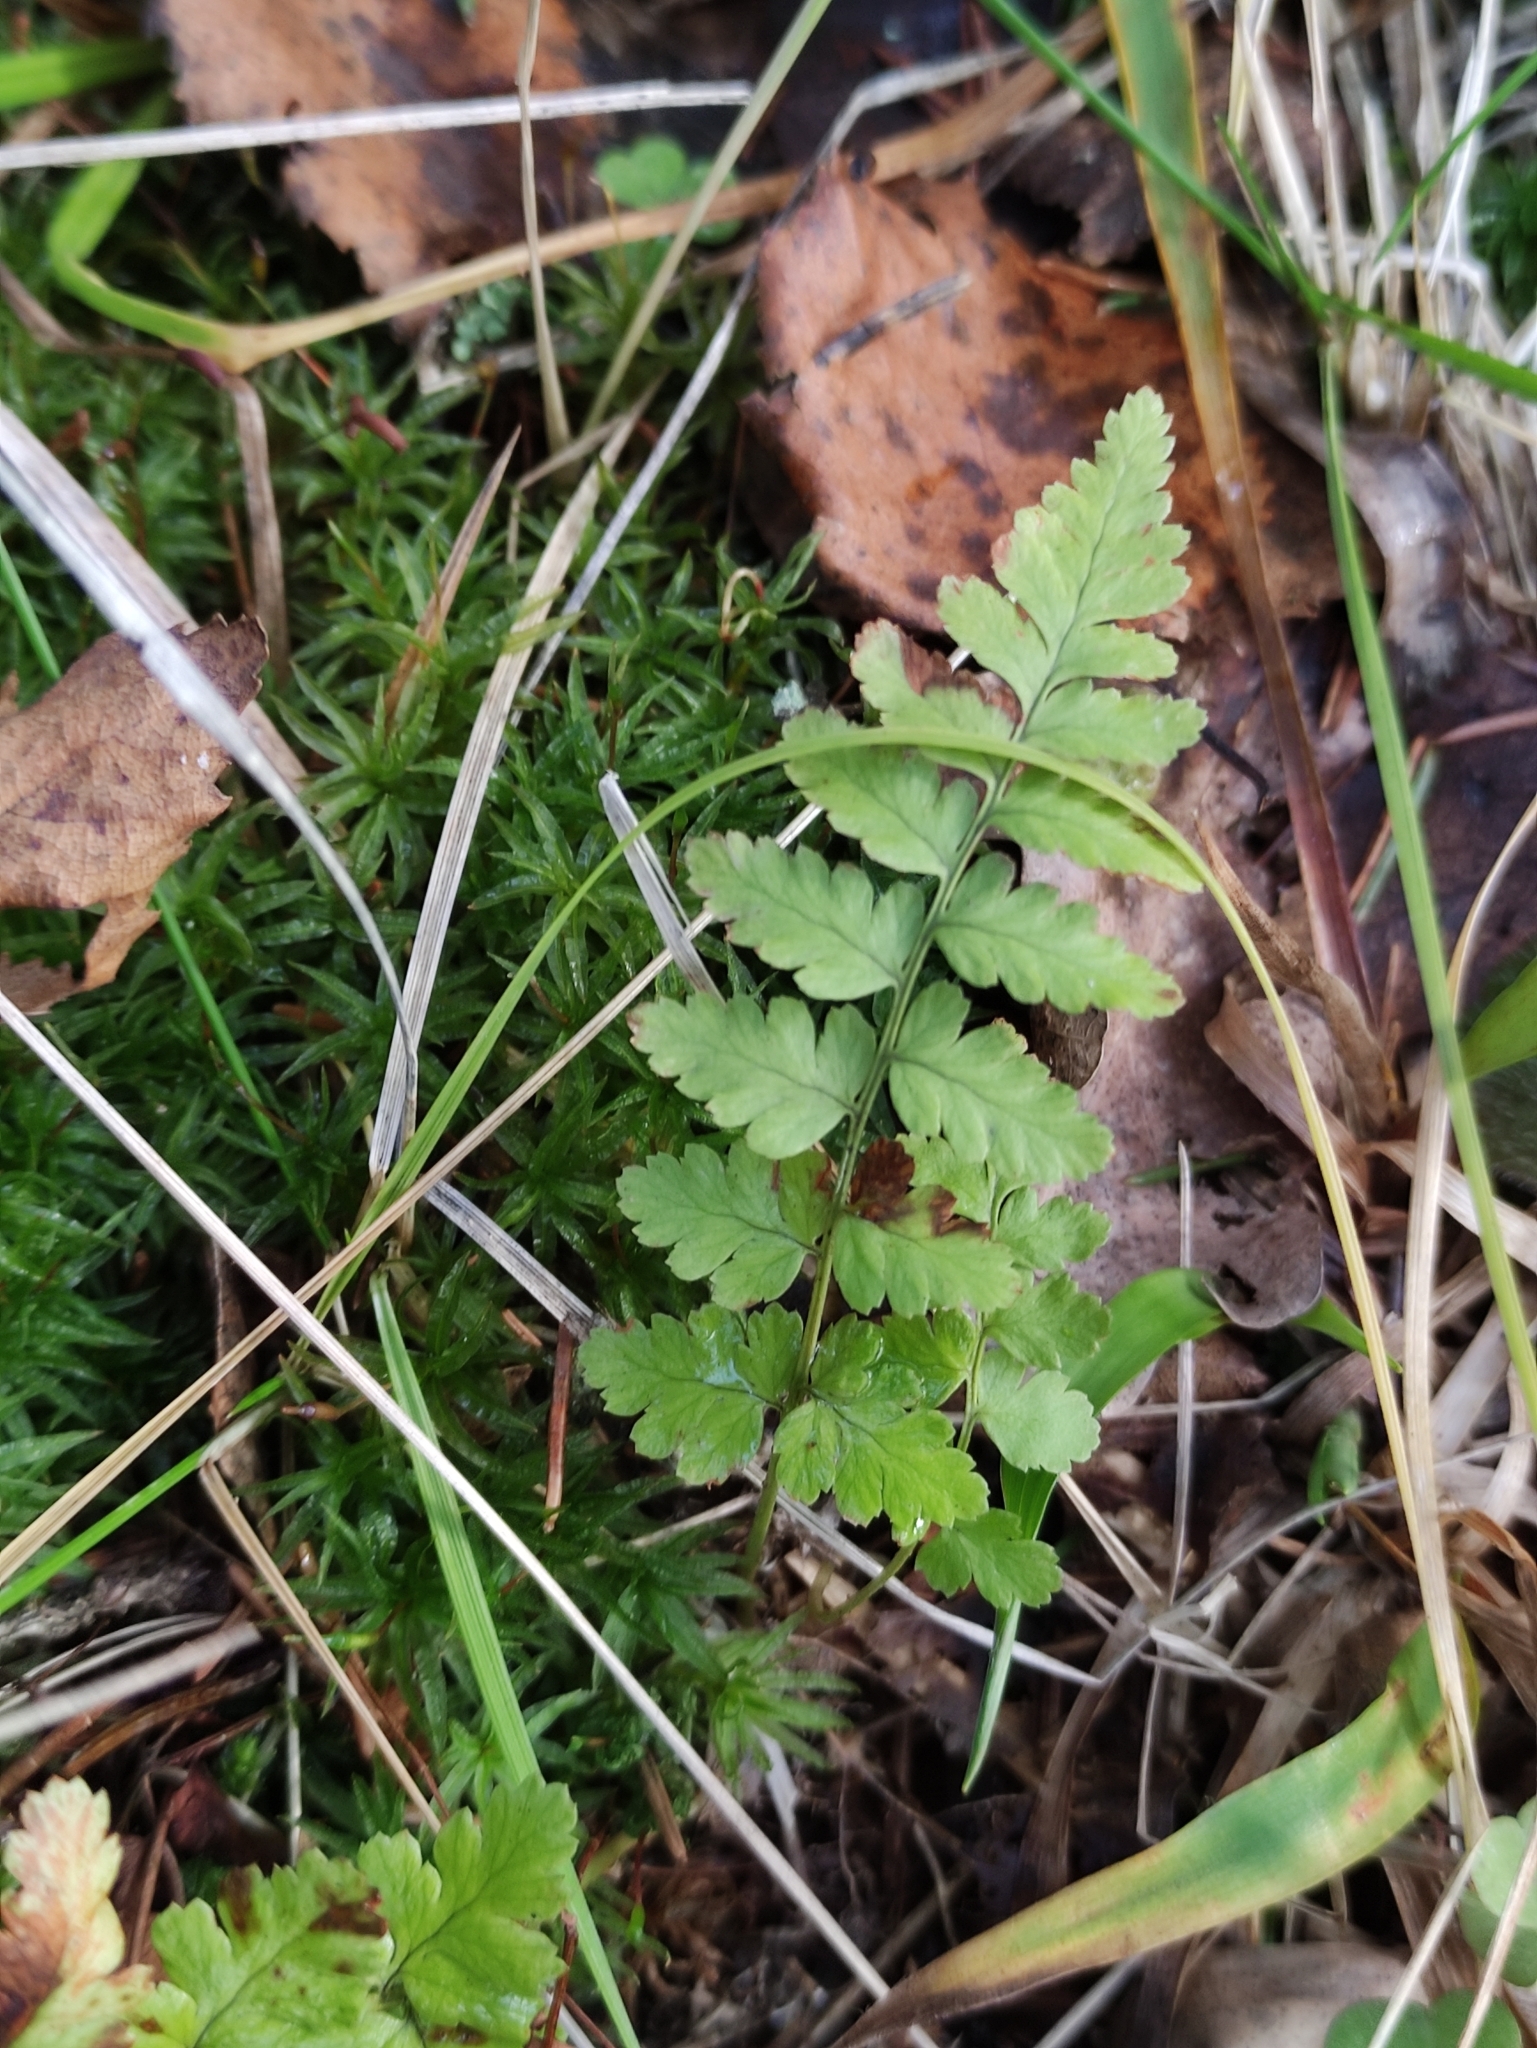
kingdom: Plantae
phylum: Tracheophyta
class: Polypodiopsida
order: Polypodiales
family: Dryopteridaceae
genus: Dryopteris
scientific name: Dryopteris cristata
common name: Crested wood fern
